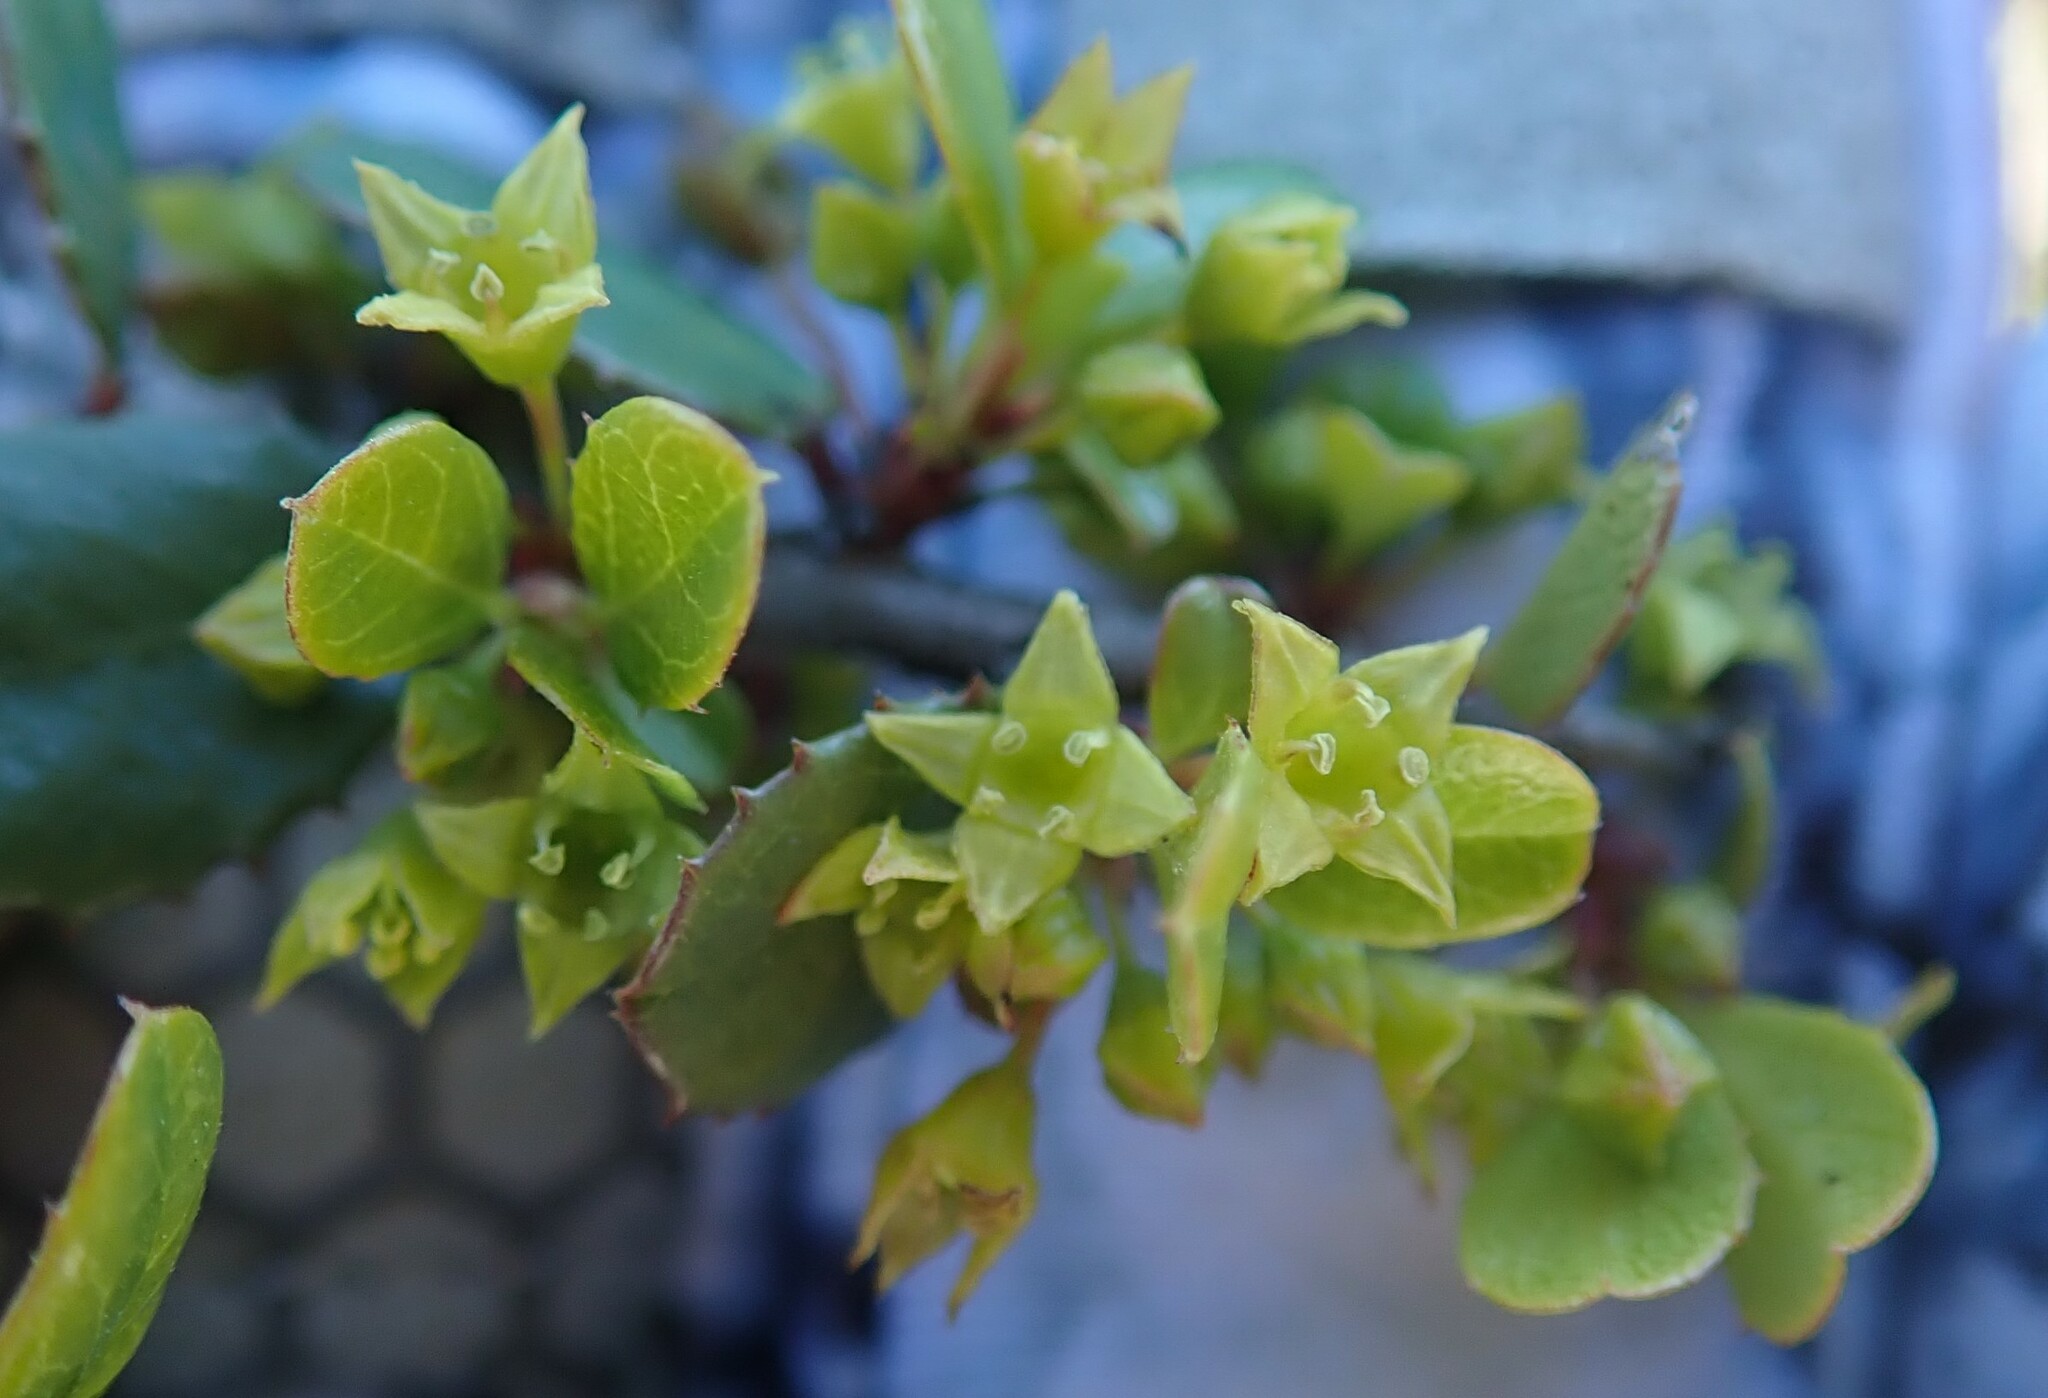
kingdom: Plantae
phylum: Tracheophyta
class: Magnoliopsida
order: Rosales
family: Rhamnaceae
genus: Endotropis
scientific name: Endotropis crocea
